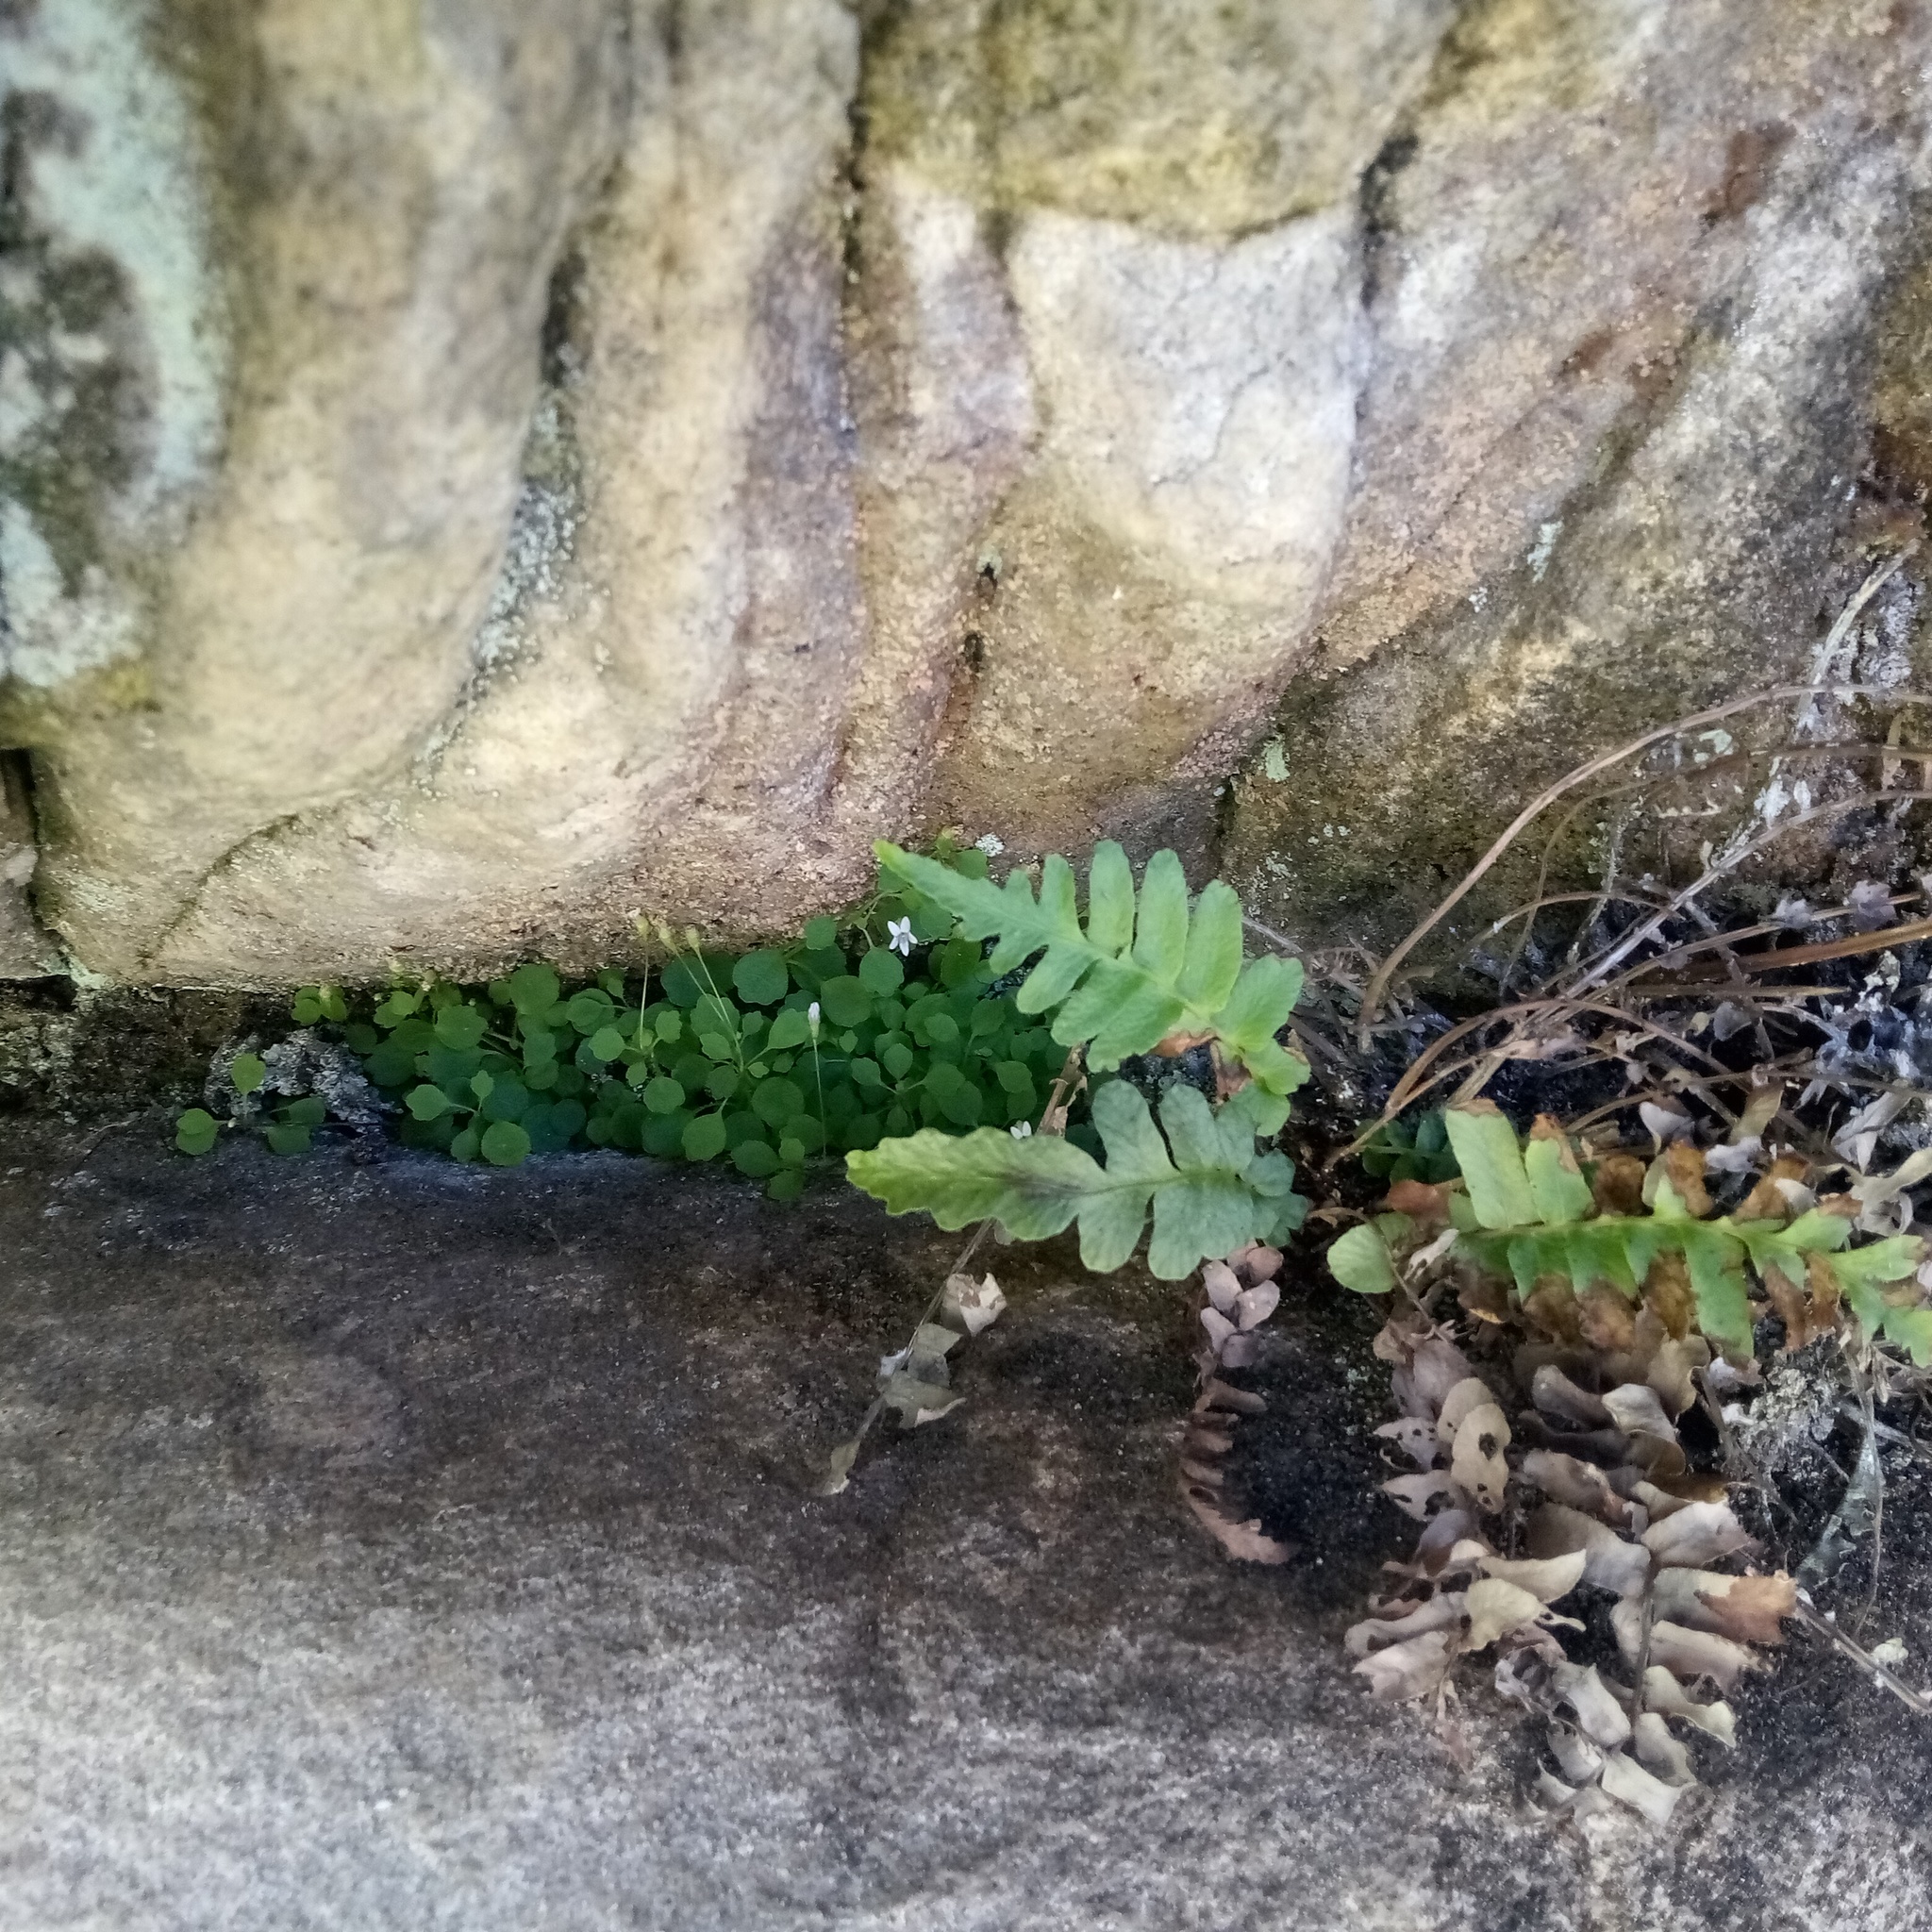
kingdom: Plantae
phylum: Tracheophyta
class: Magnoliopsida
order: Asterales
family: Campanulaceae
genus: Wimmerella
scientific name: Wimmerella pygmaea
